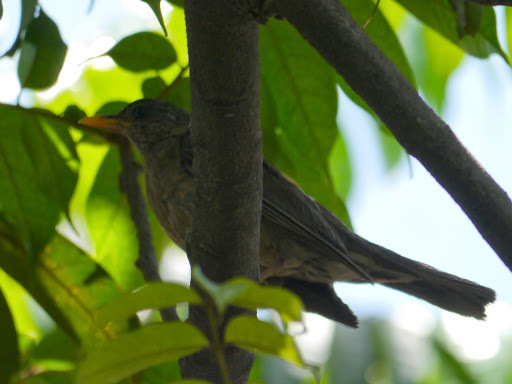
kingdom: Animalia
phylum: Chordata
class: Aves
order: Passeriformes
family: Turdidae
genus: Turdus
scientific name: Turdus pelios
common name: African thrush
